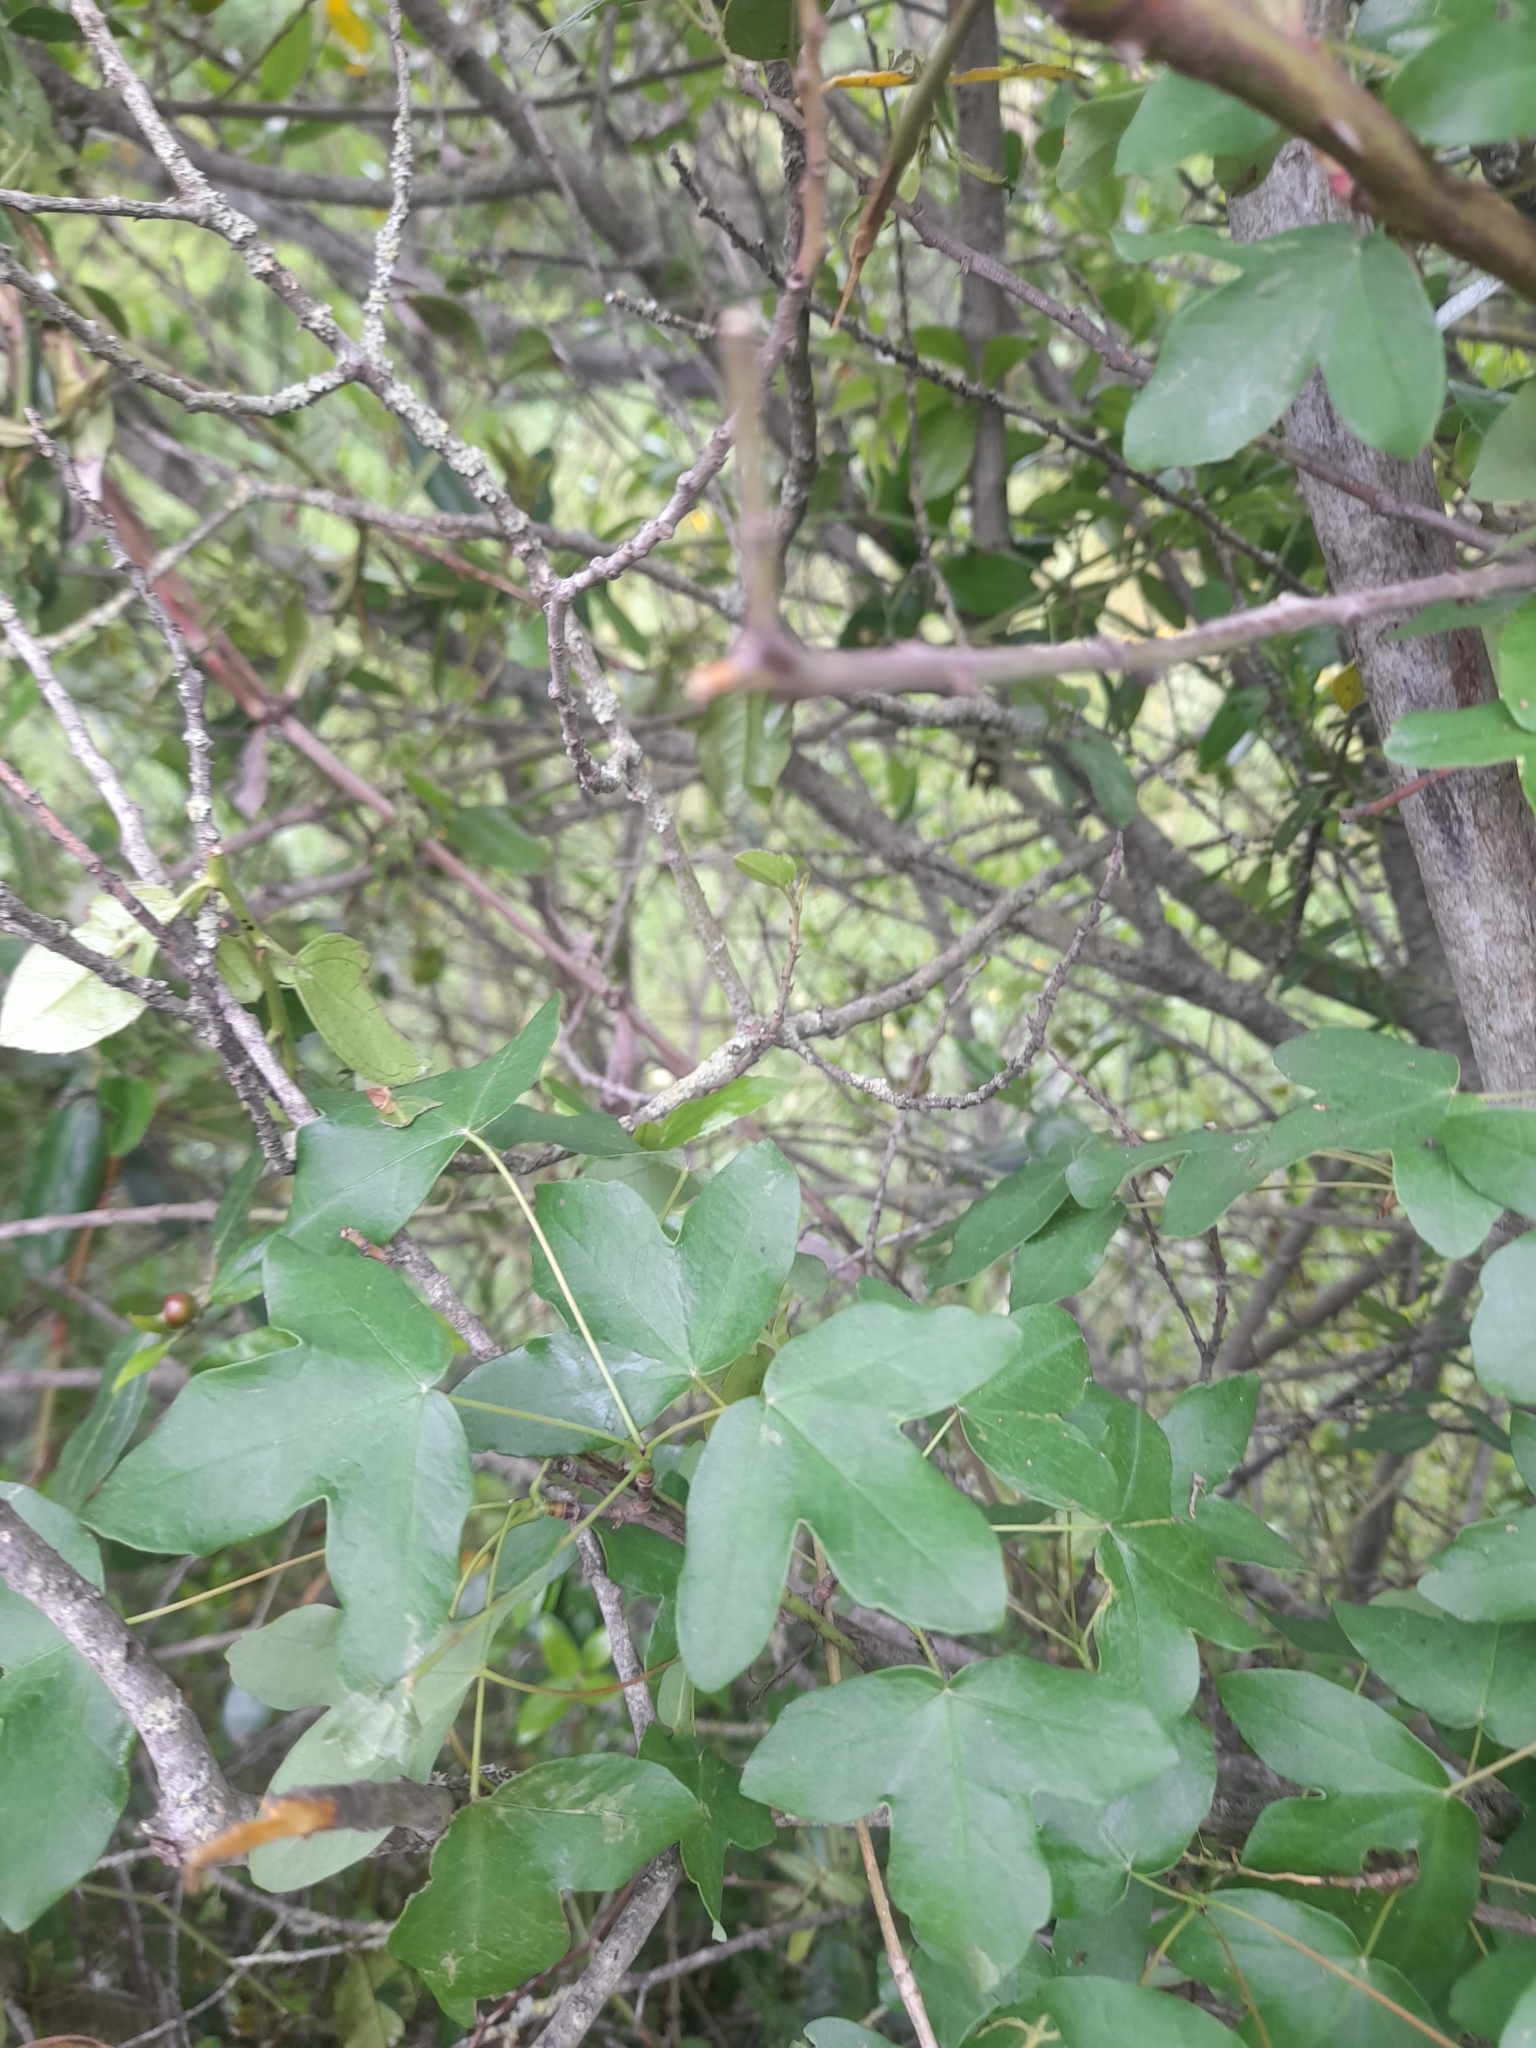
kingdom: Plantae
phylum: Tracheophyta
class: Magnoliopsida
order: Sapindales
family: Sapindaceae
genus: Acer
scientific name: Acer monspessulanum
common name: Montpellier maple
